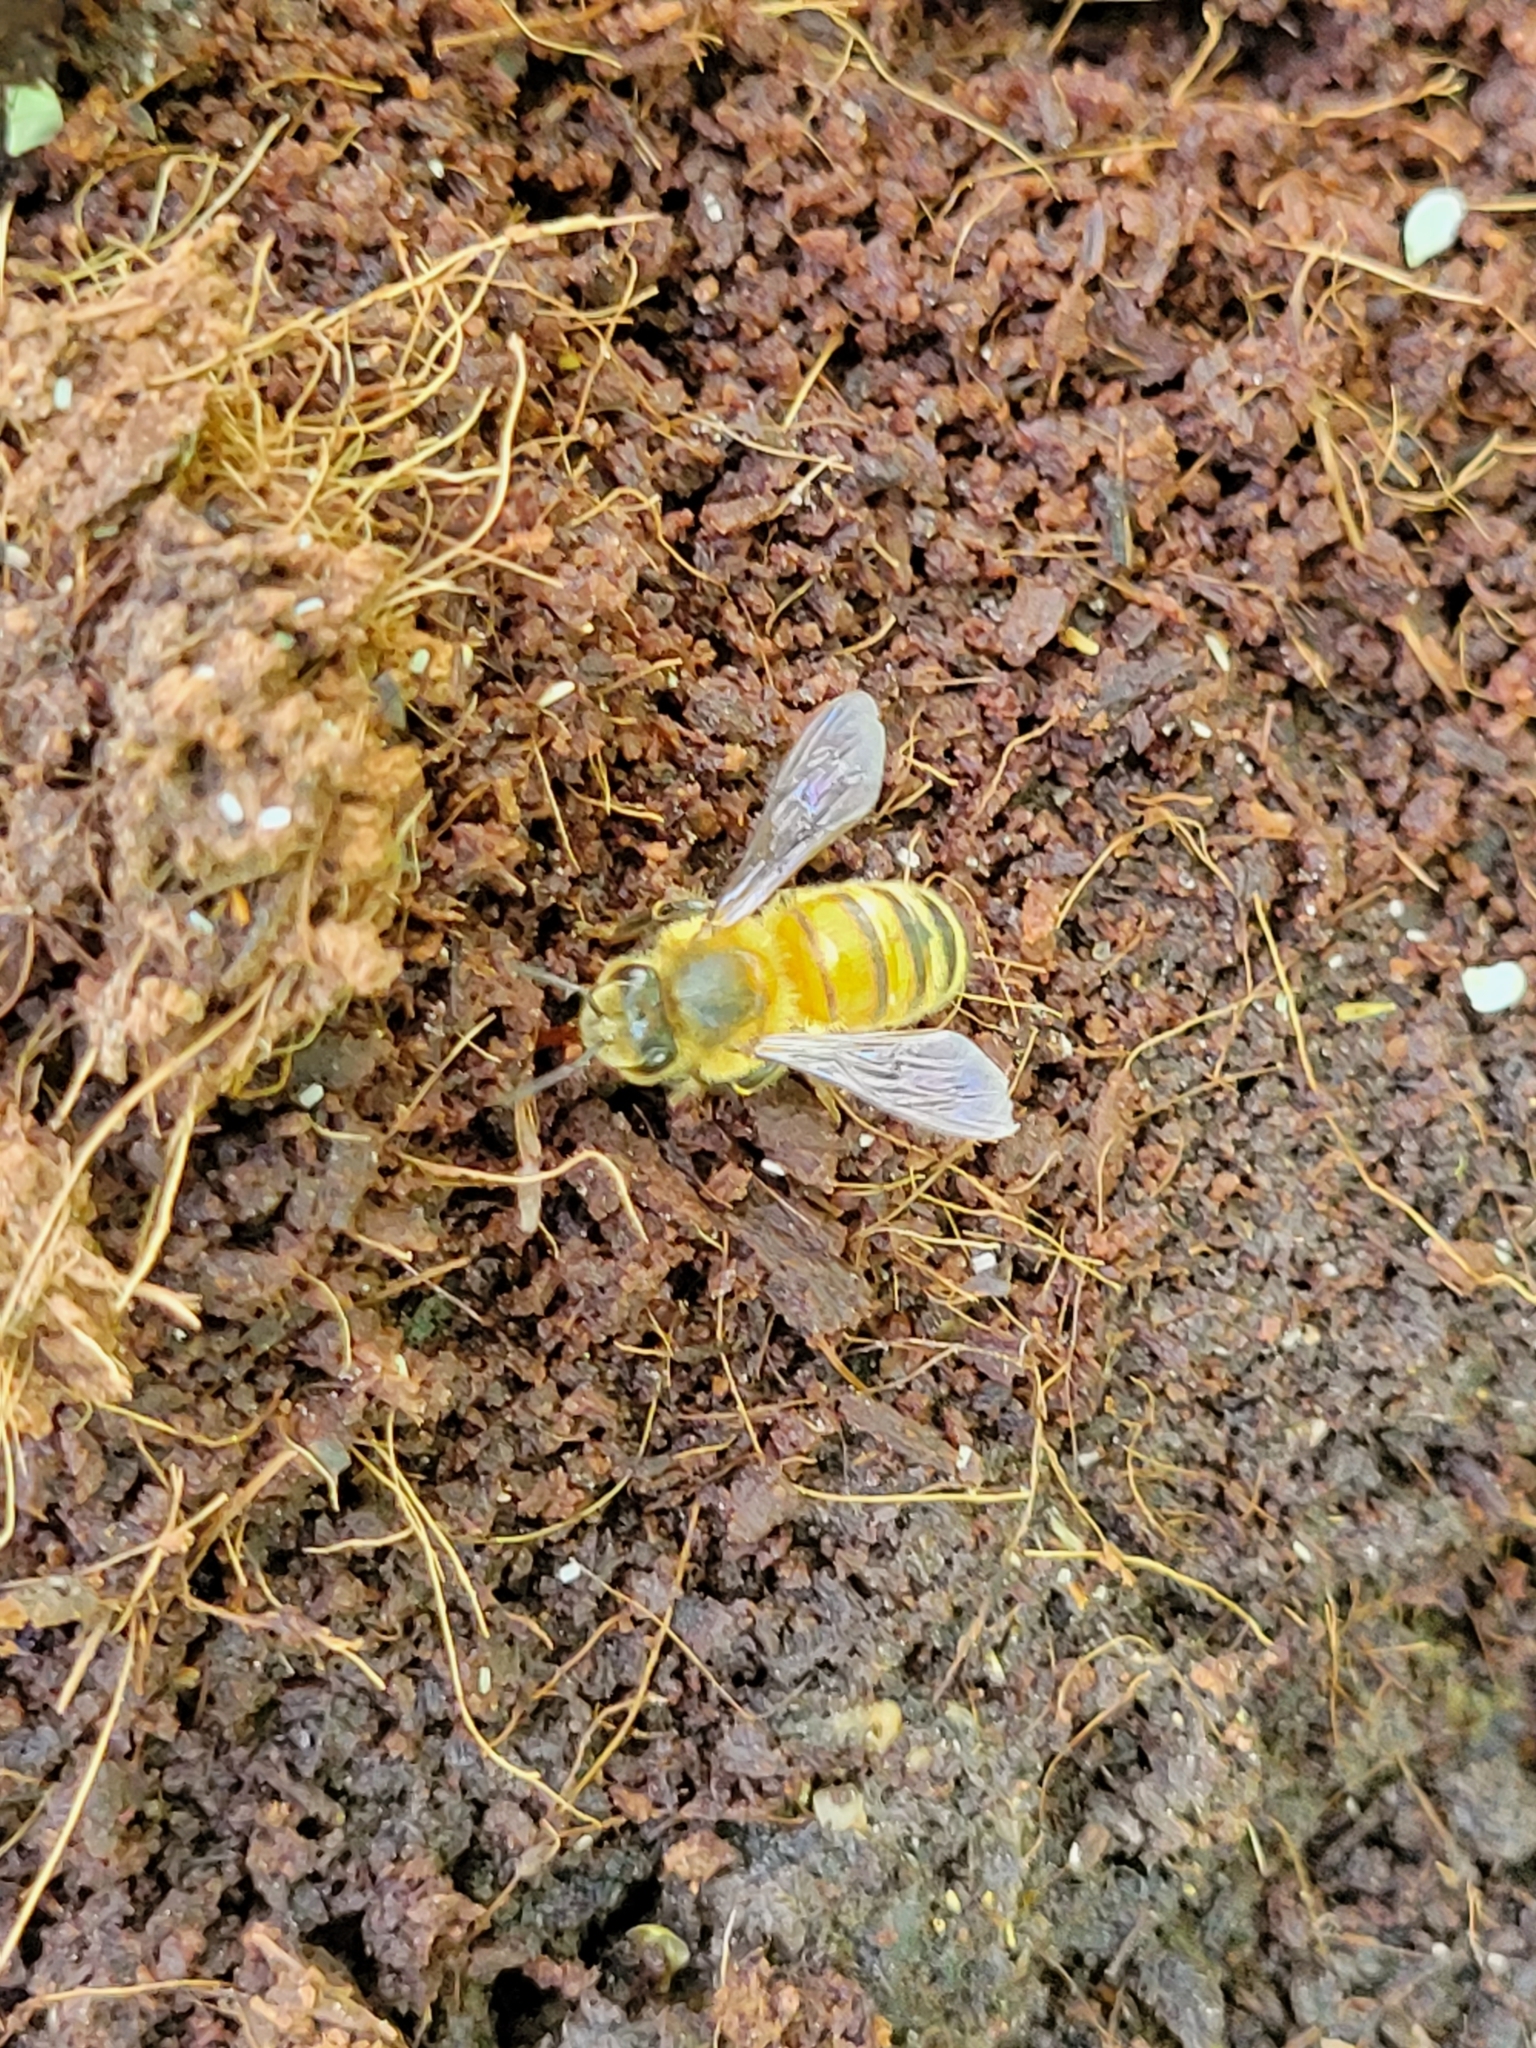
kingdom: Animalia
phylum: Arthropoda
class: Insecta
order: Hymenoptera
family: Apidae
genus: Apis
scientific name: Apis mellifera
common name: Honey bee
